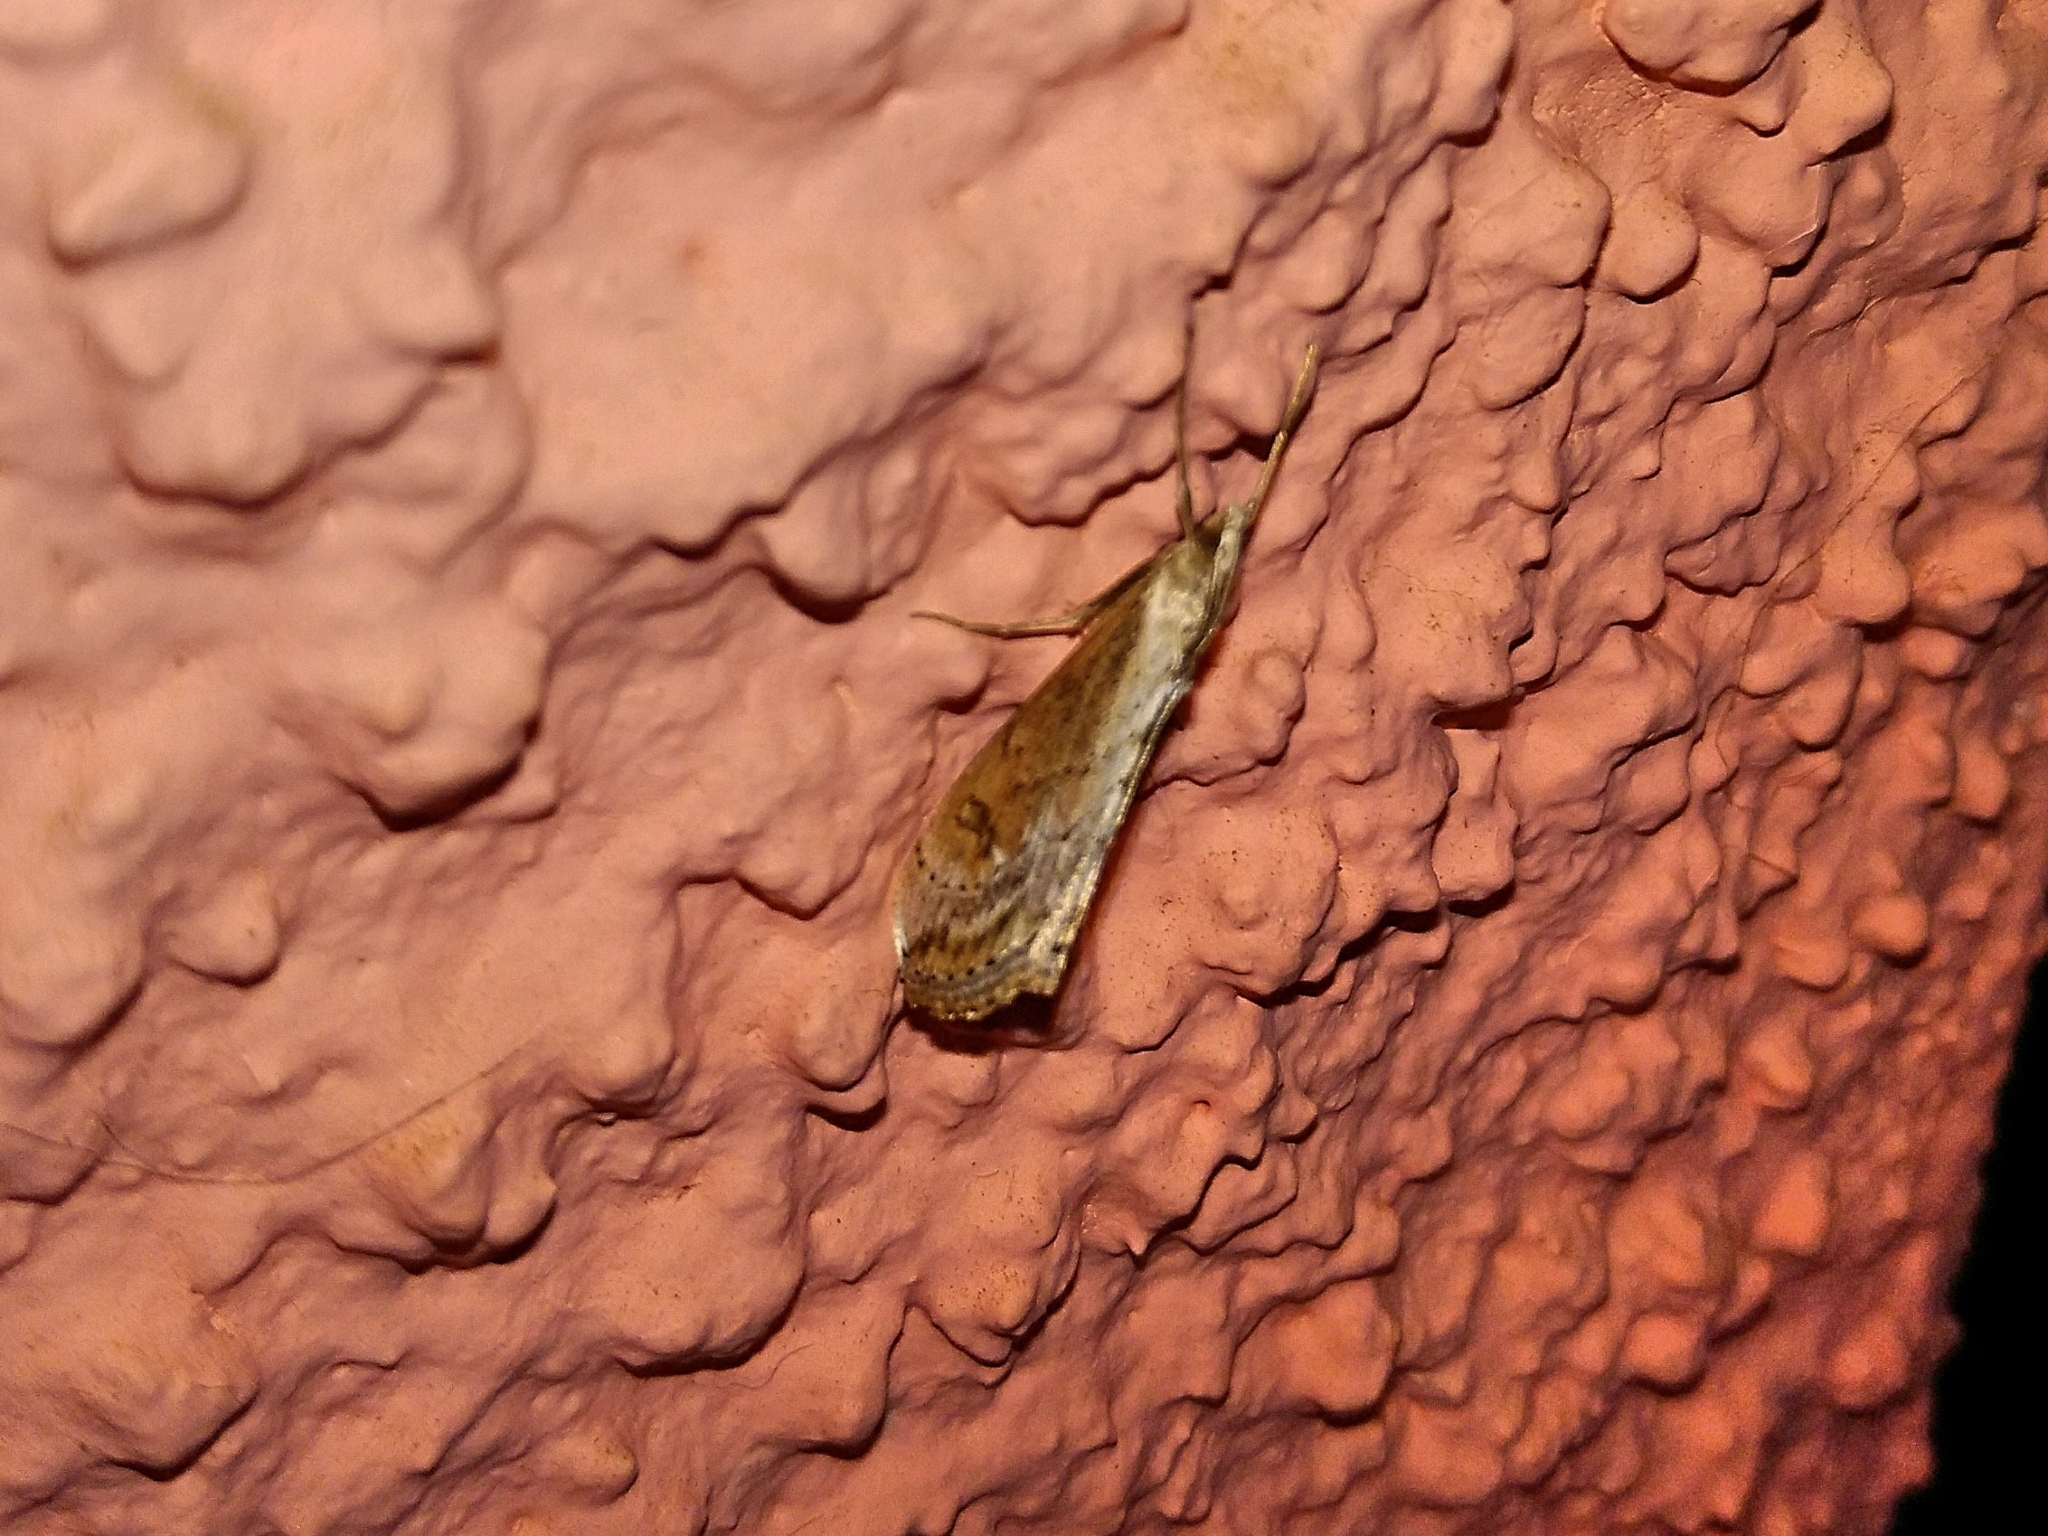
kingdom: Animalia
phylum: Arthropoda
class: Insecta
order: Lepidoptera
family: Crambidae
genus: Evergestis
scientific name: Evergestis isatidalis
